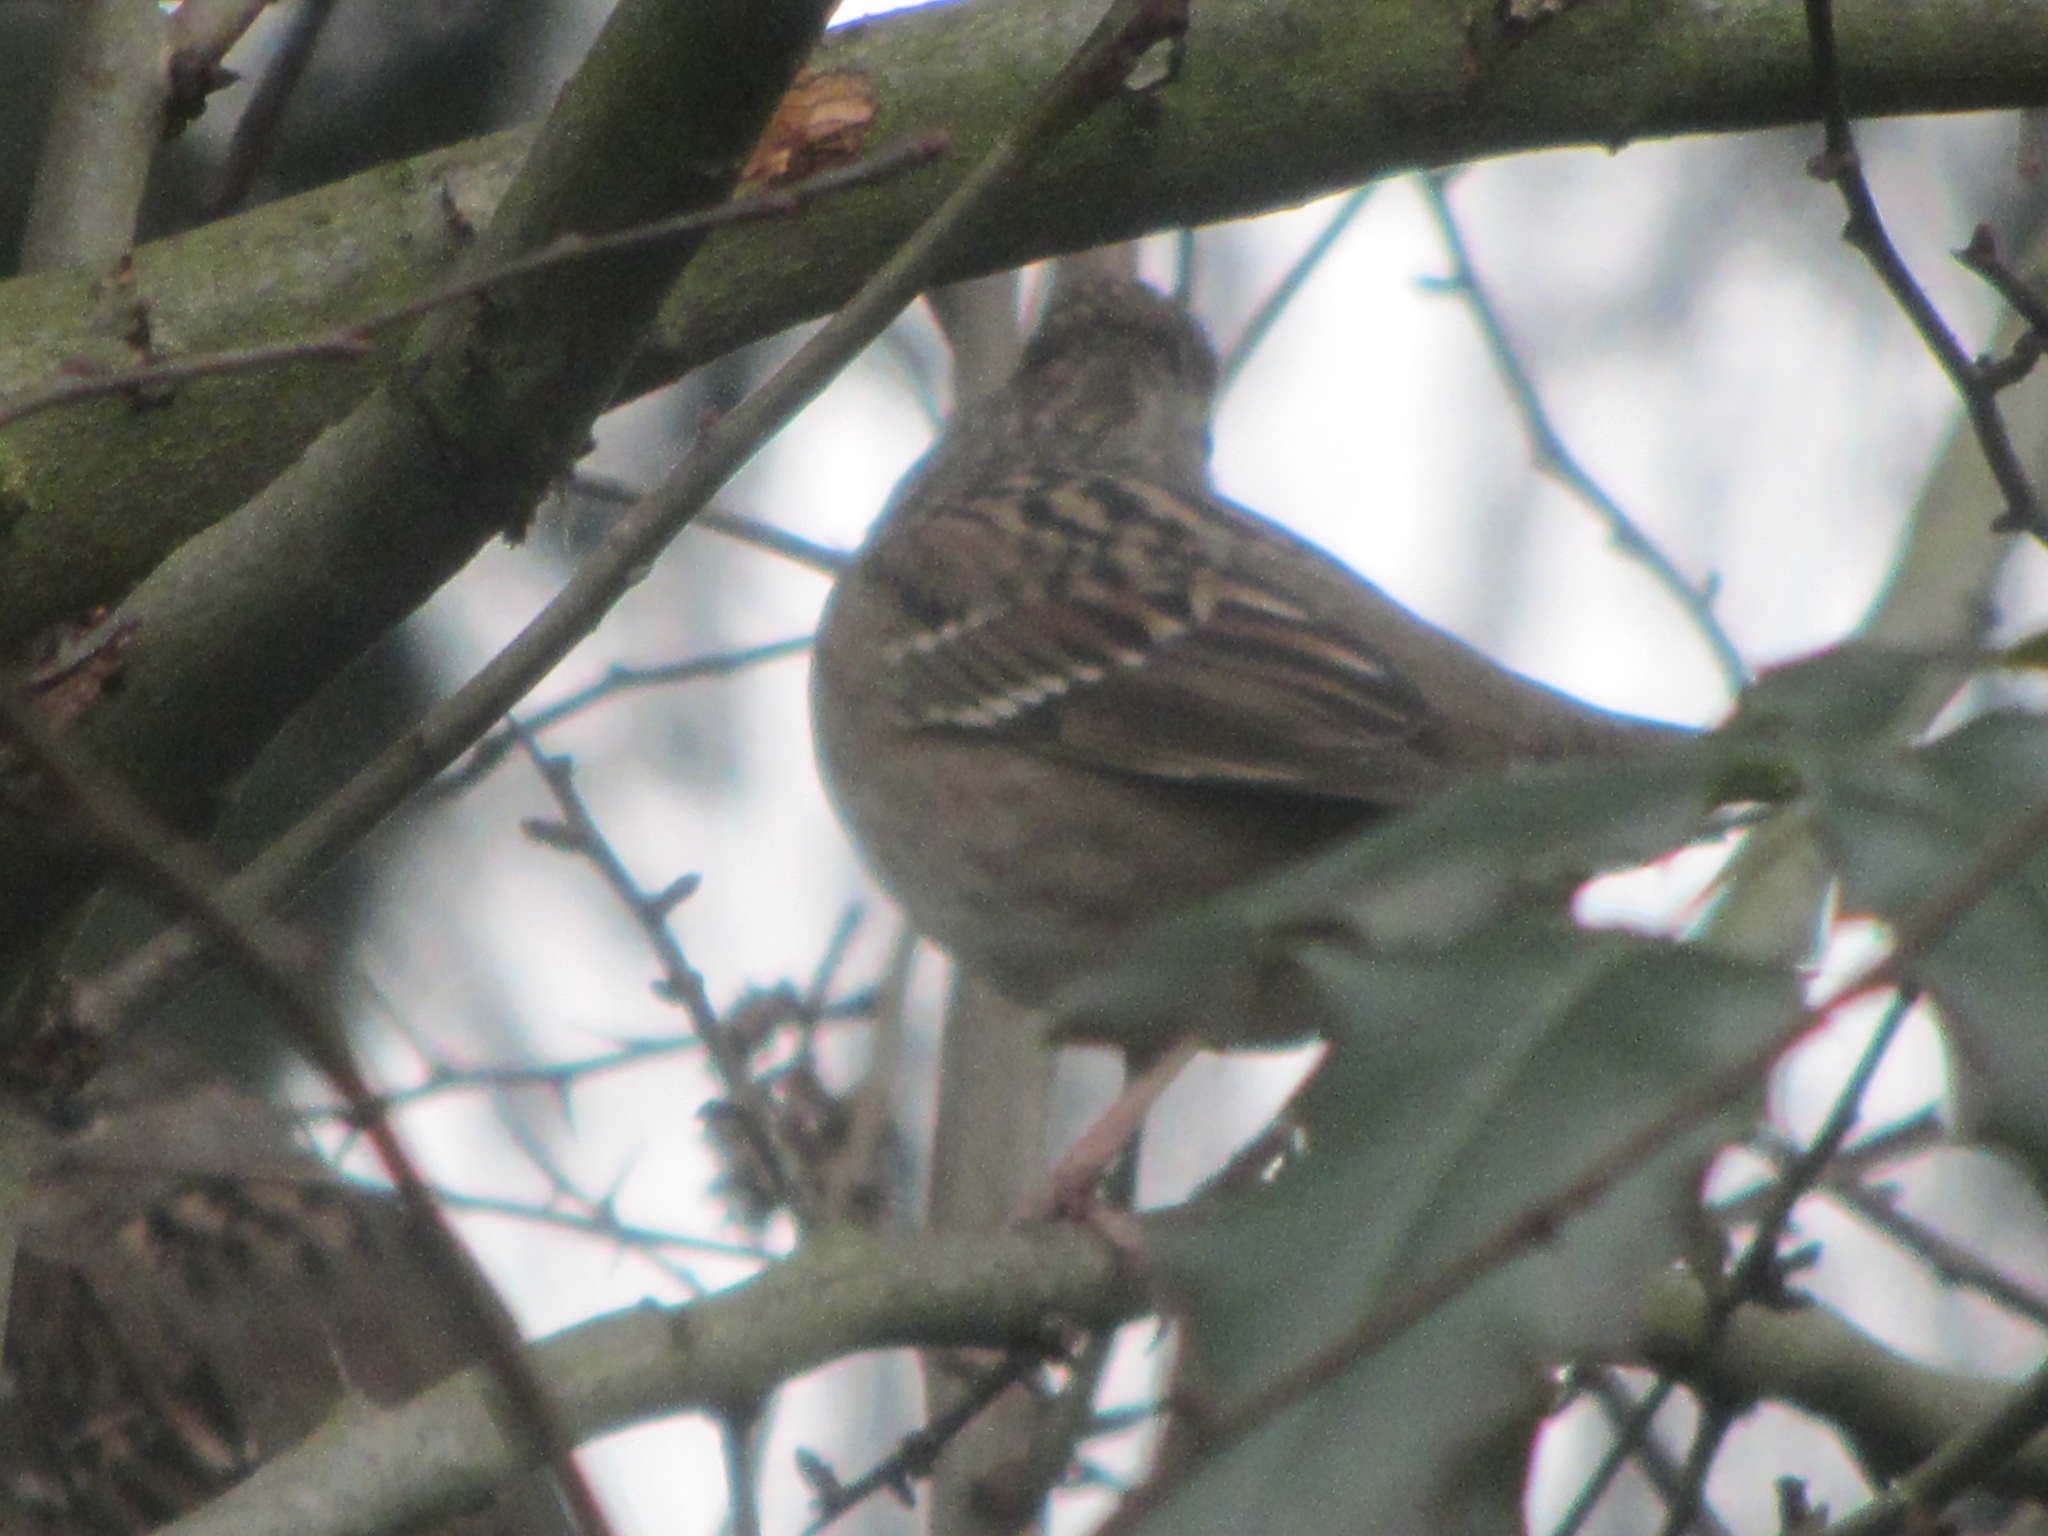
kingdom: Animalia
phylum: Chordata
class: Aves
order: Passeriformes
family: Passerellidae
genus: Zonotrichia
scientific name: Zonotrichia atricapilla
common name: Golden-crowned sparrow
